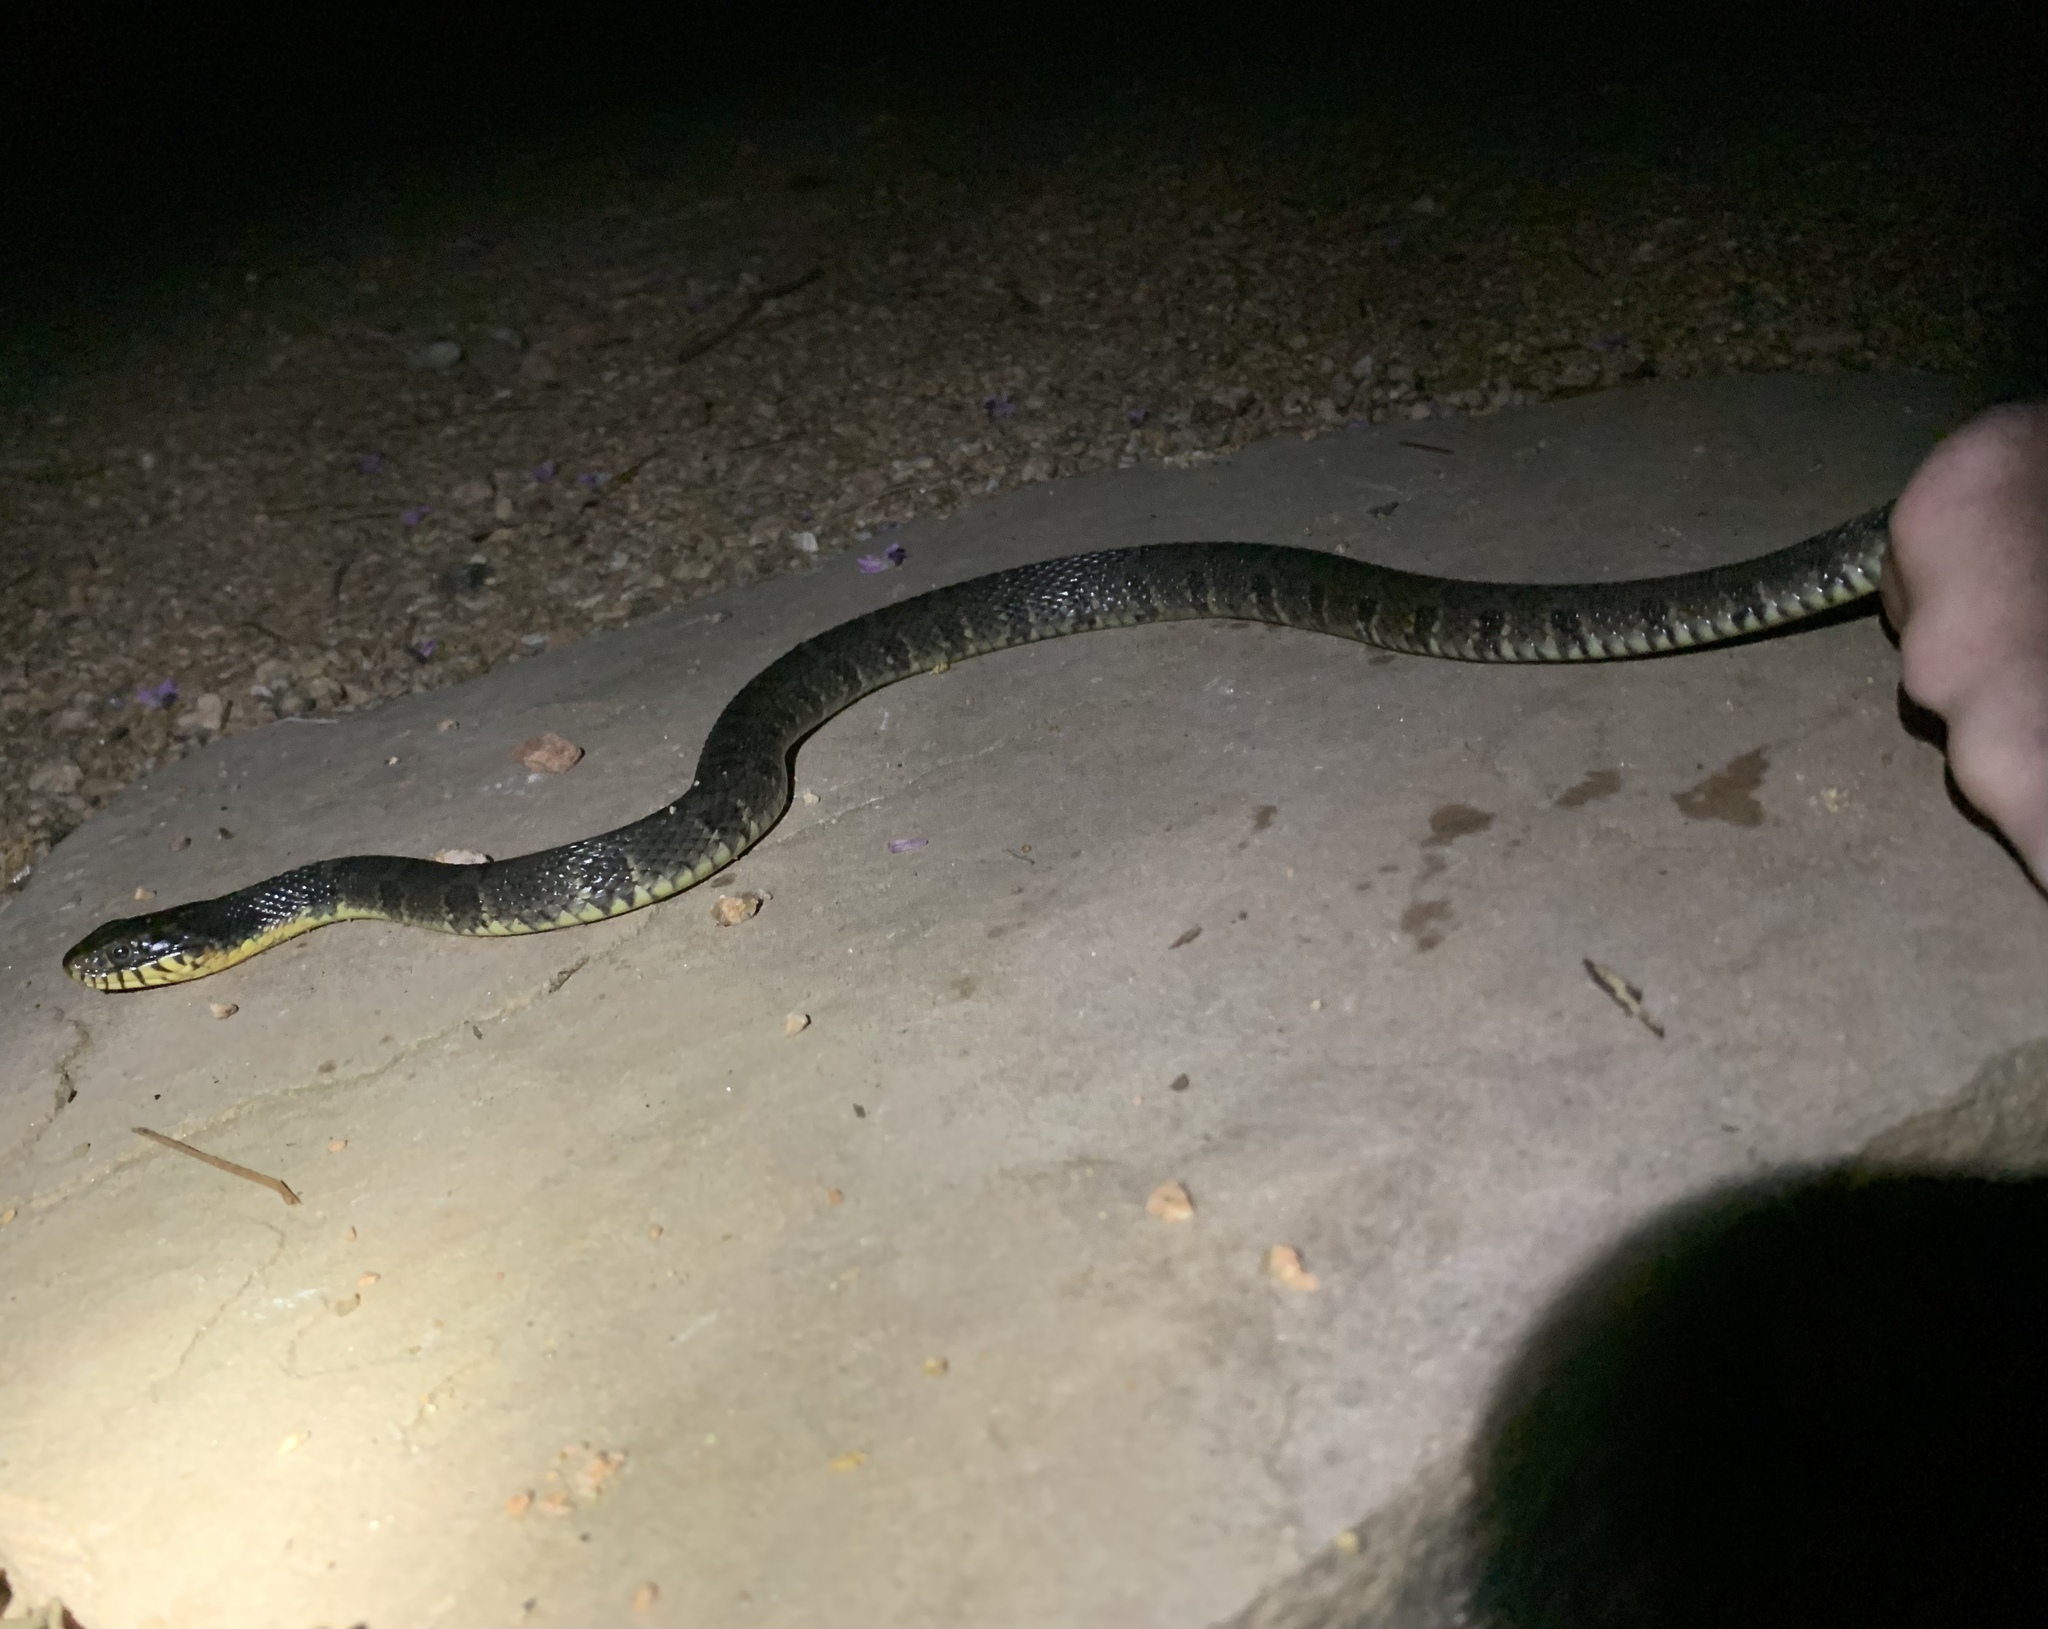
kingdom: Animalia
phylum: Chordata
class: Squamata
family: Colubridae
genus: Nerodia
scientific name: Nerodia erythrogaster
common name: Plainbelly water snake
